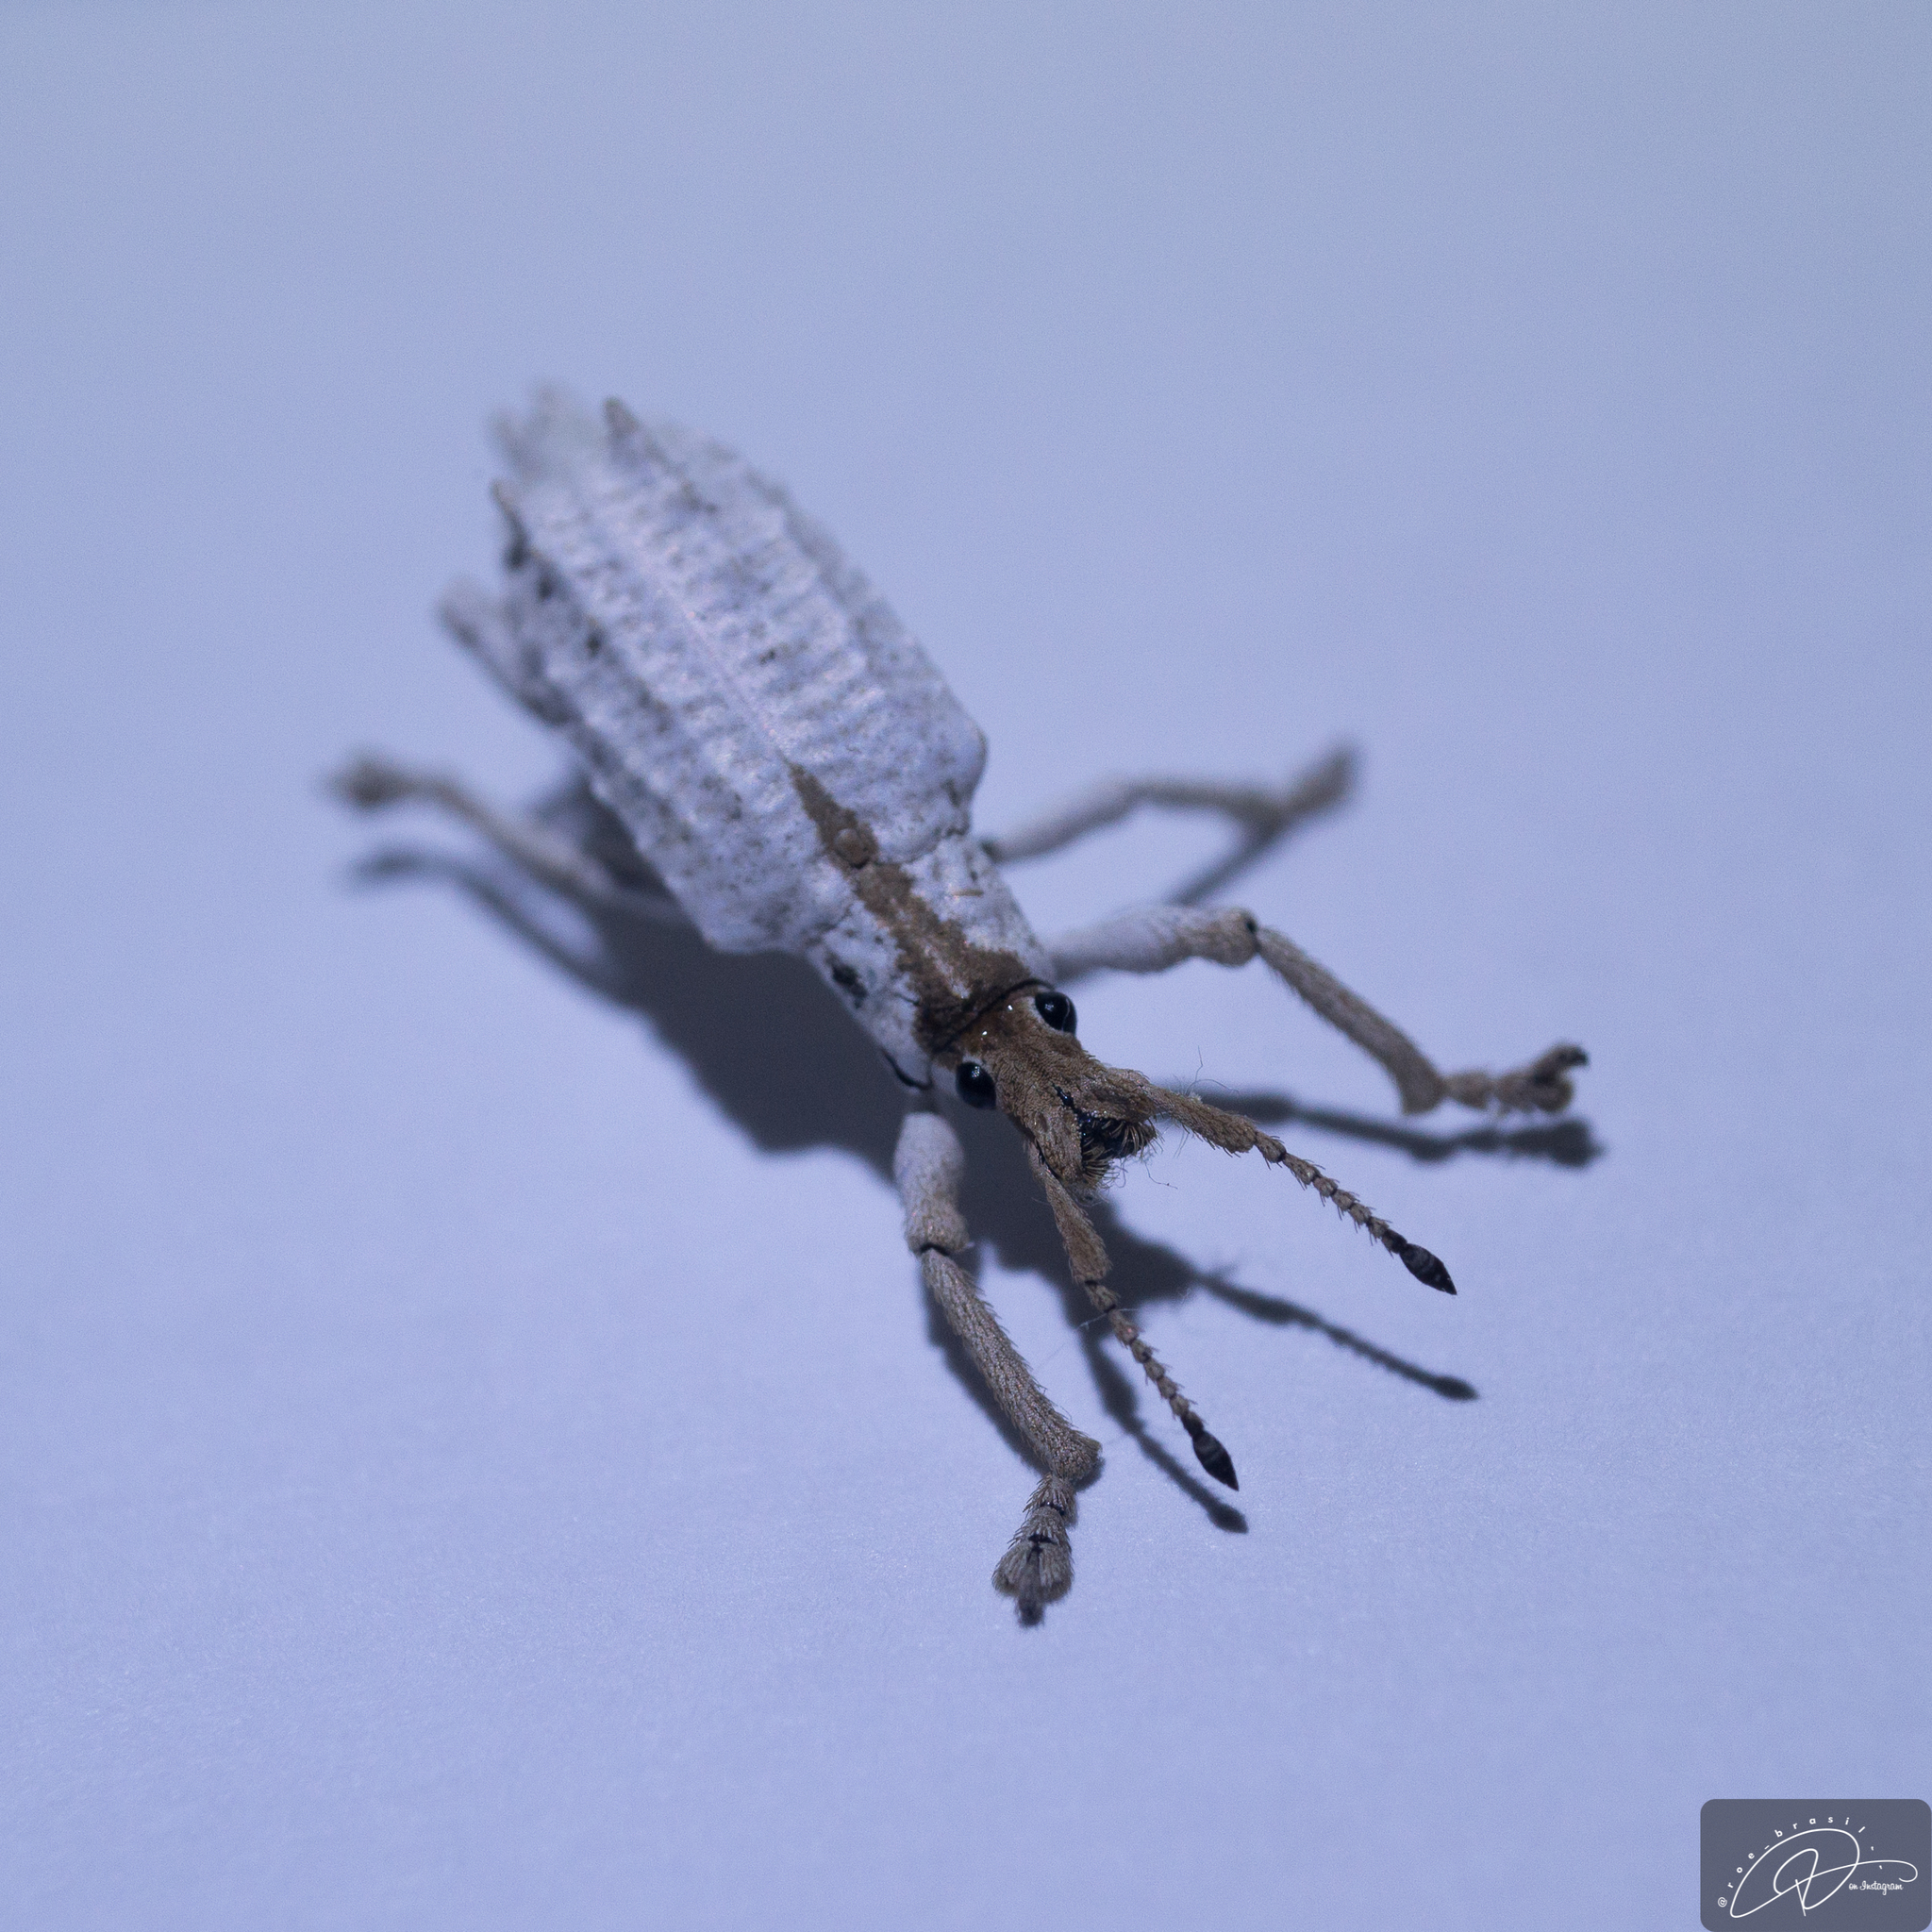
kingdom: Animalia
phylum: Arthropoda
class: Insecta
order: Coleoptera
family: Curculionidae
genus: Compsus
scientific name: Compsus niveus
